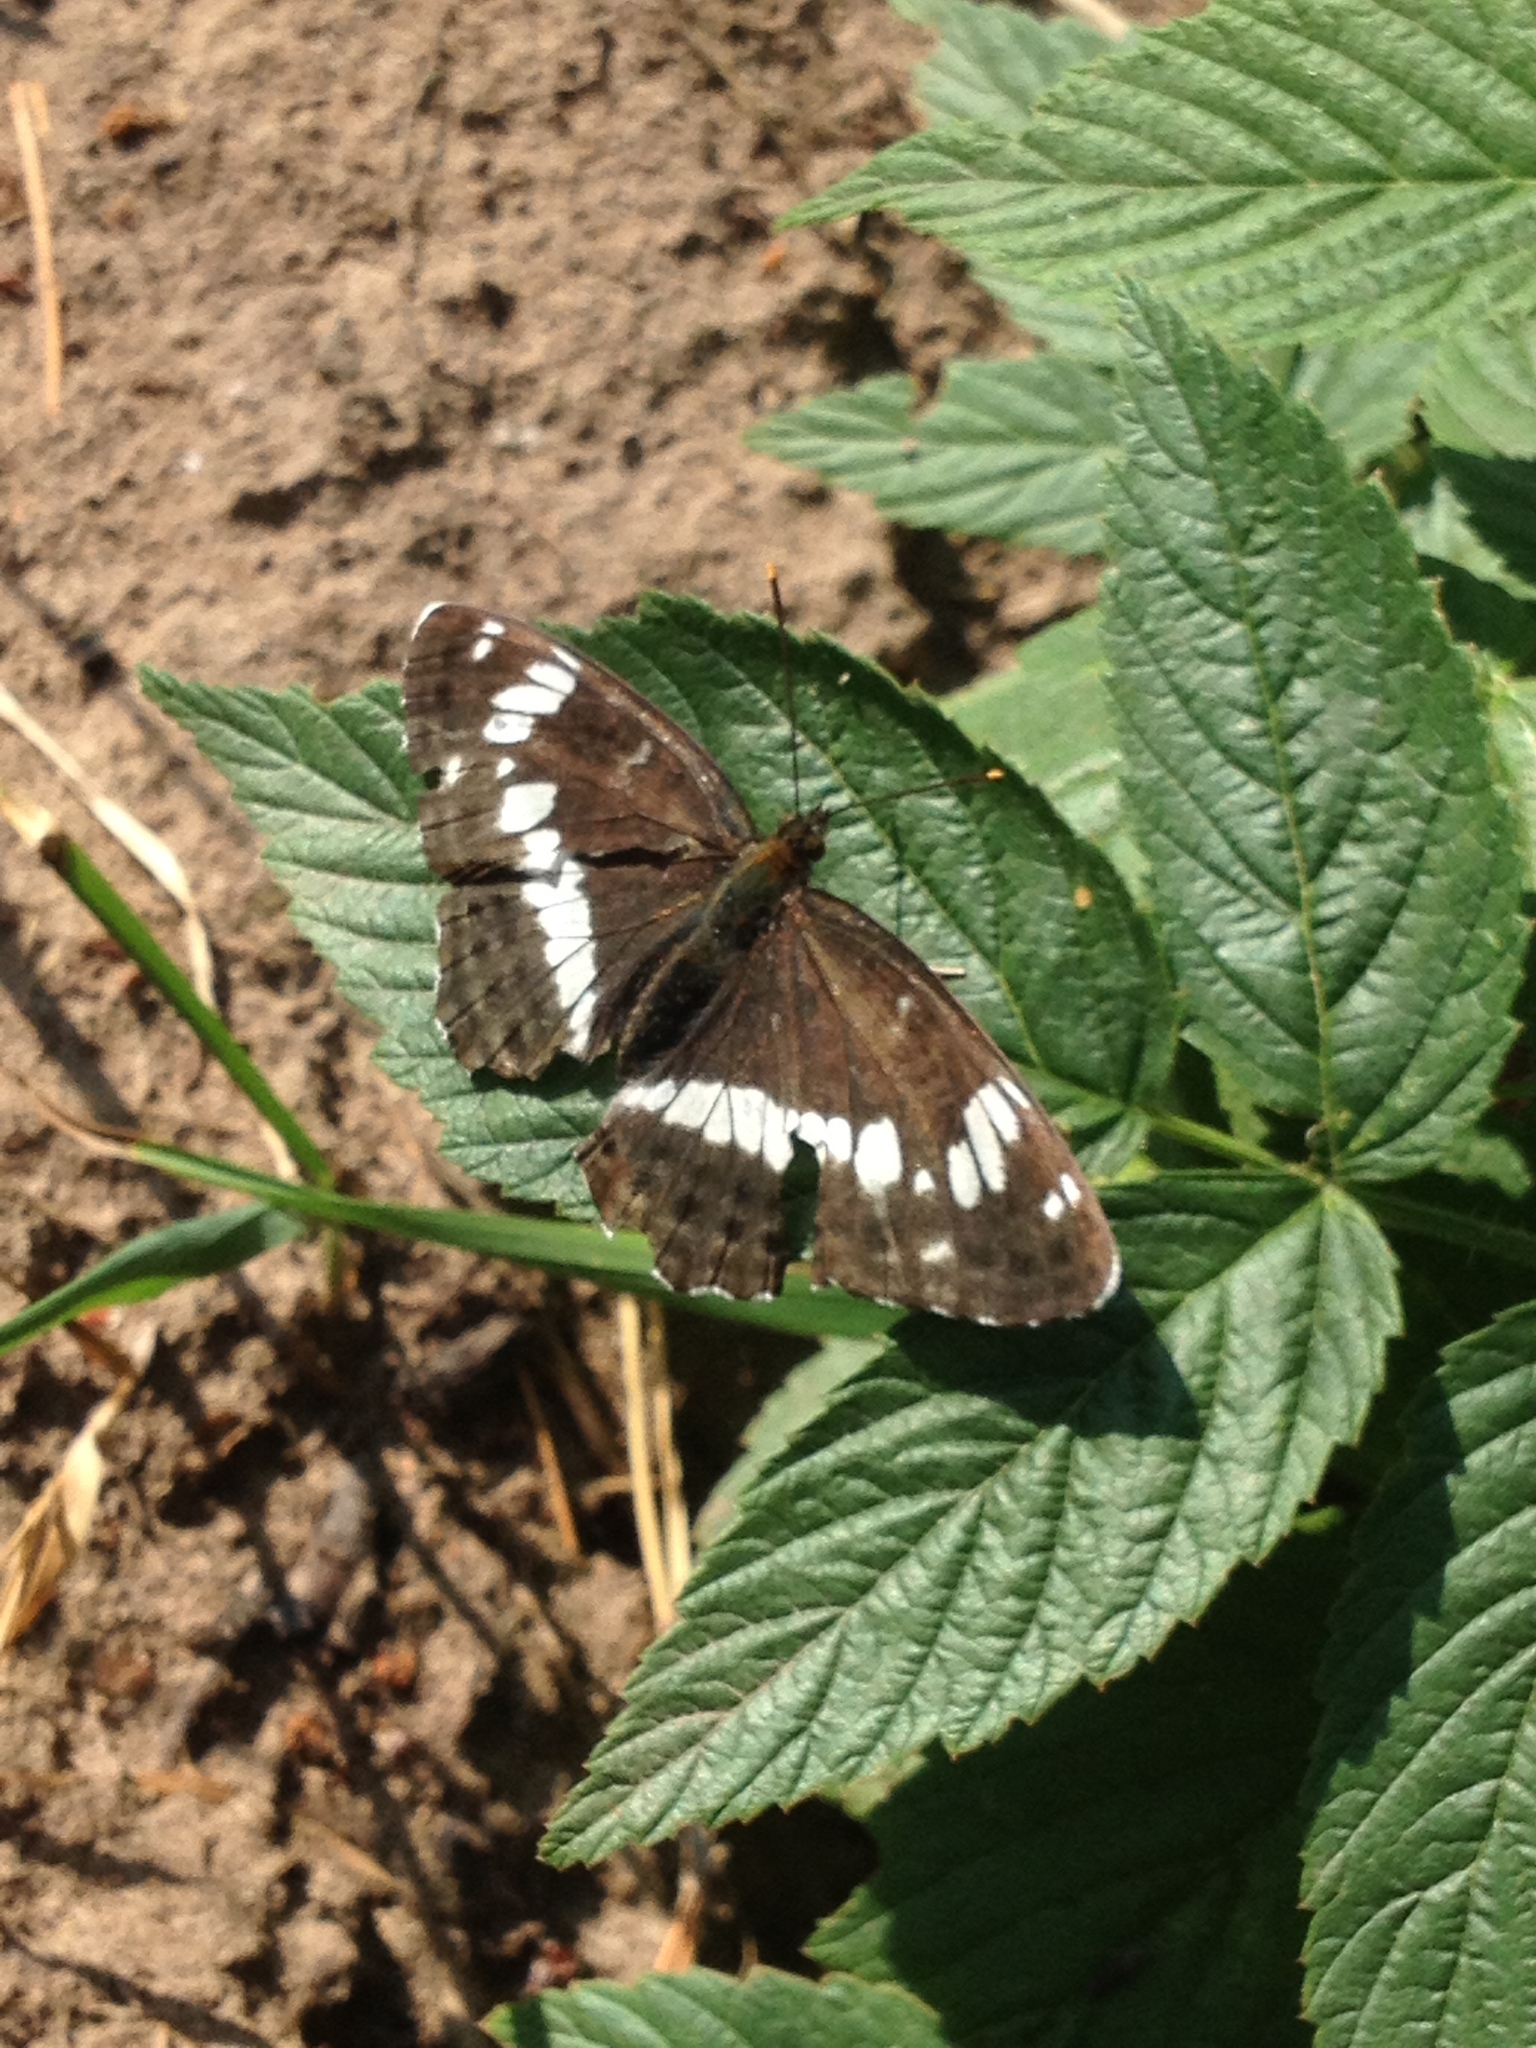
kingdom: Animalia
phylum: Arthropoda
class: Insecta
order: Lepidoptera
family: Nymphalidae
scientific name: Nymphalidae
